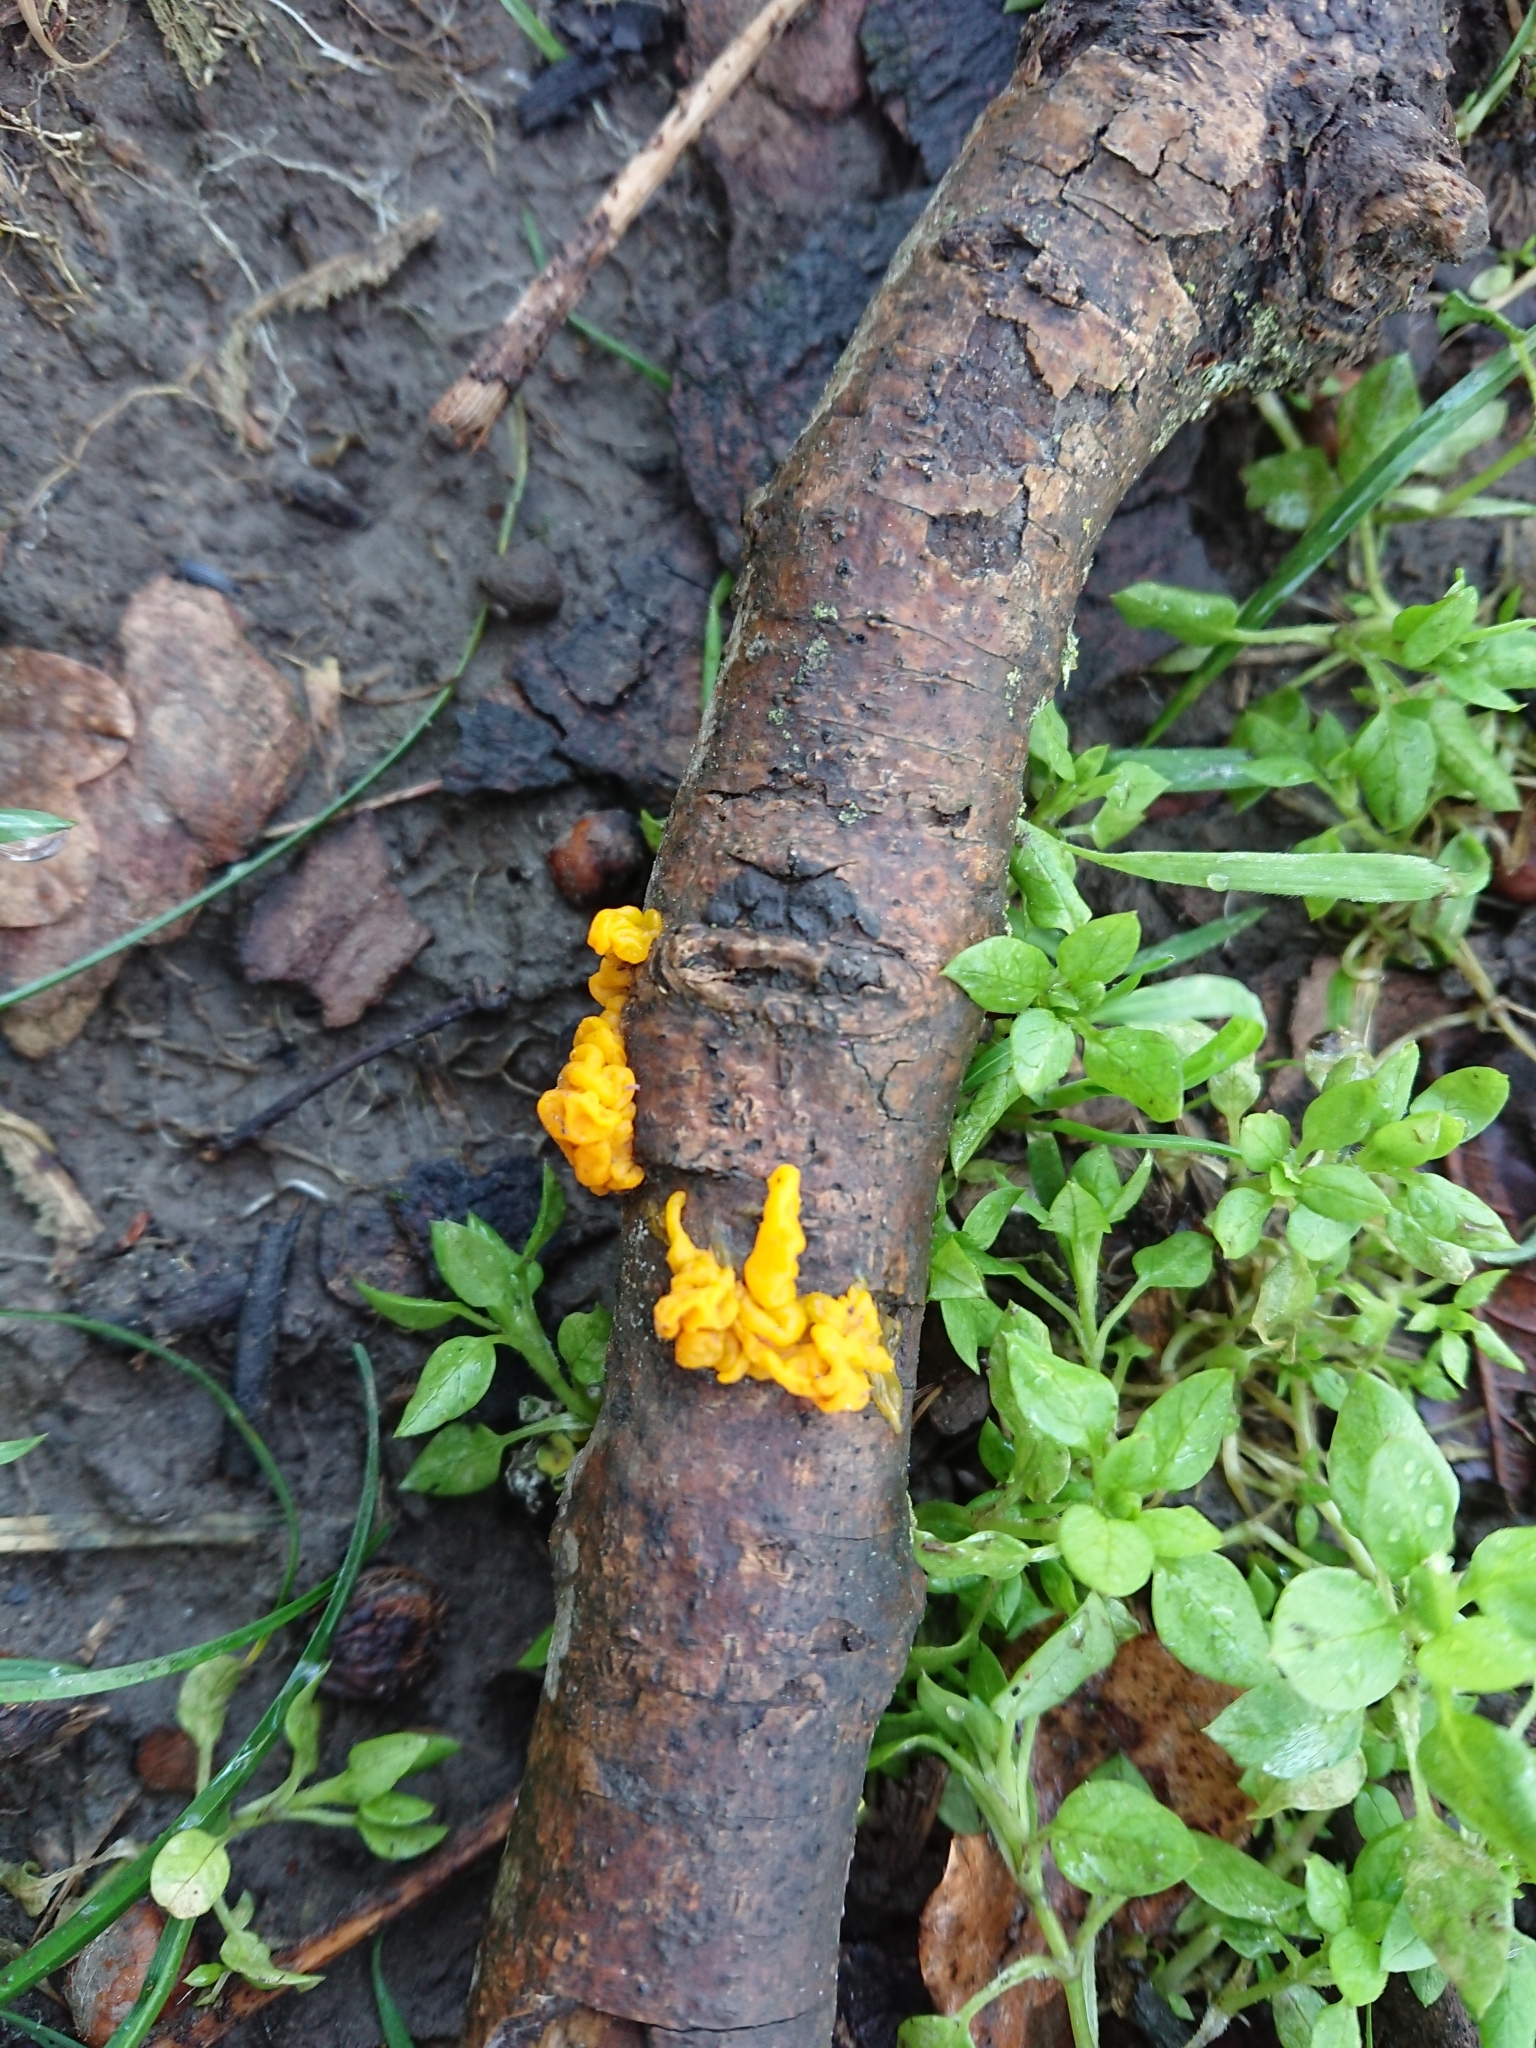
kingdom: Fungi
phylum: Basidiomycota
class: Tremellomycetes
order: Tremellales
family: Tremellaceae
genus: Tremella
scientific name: Tremella mesenterica
